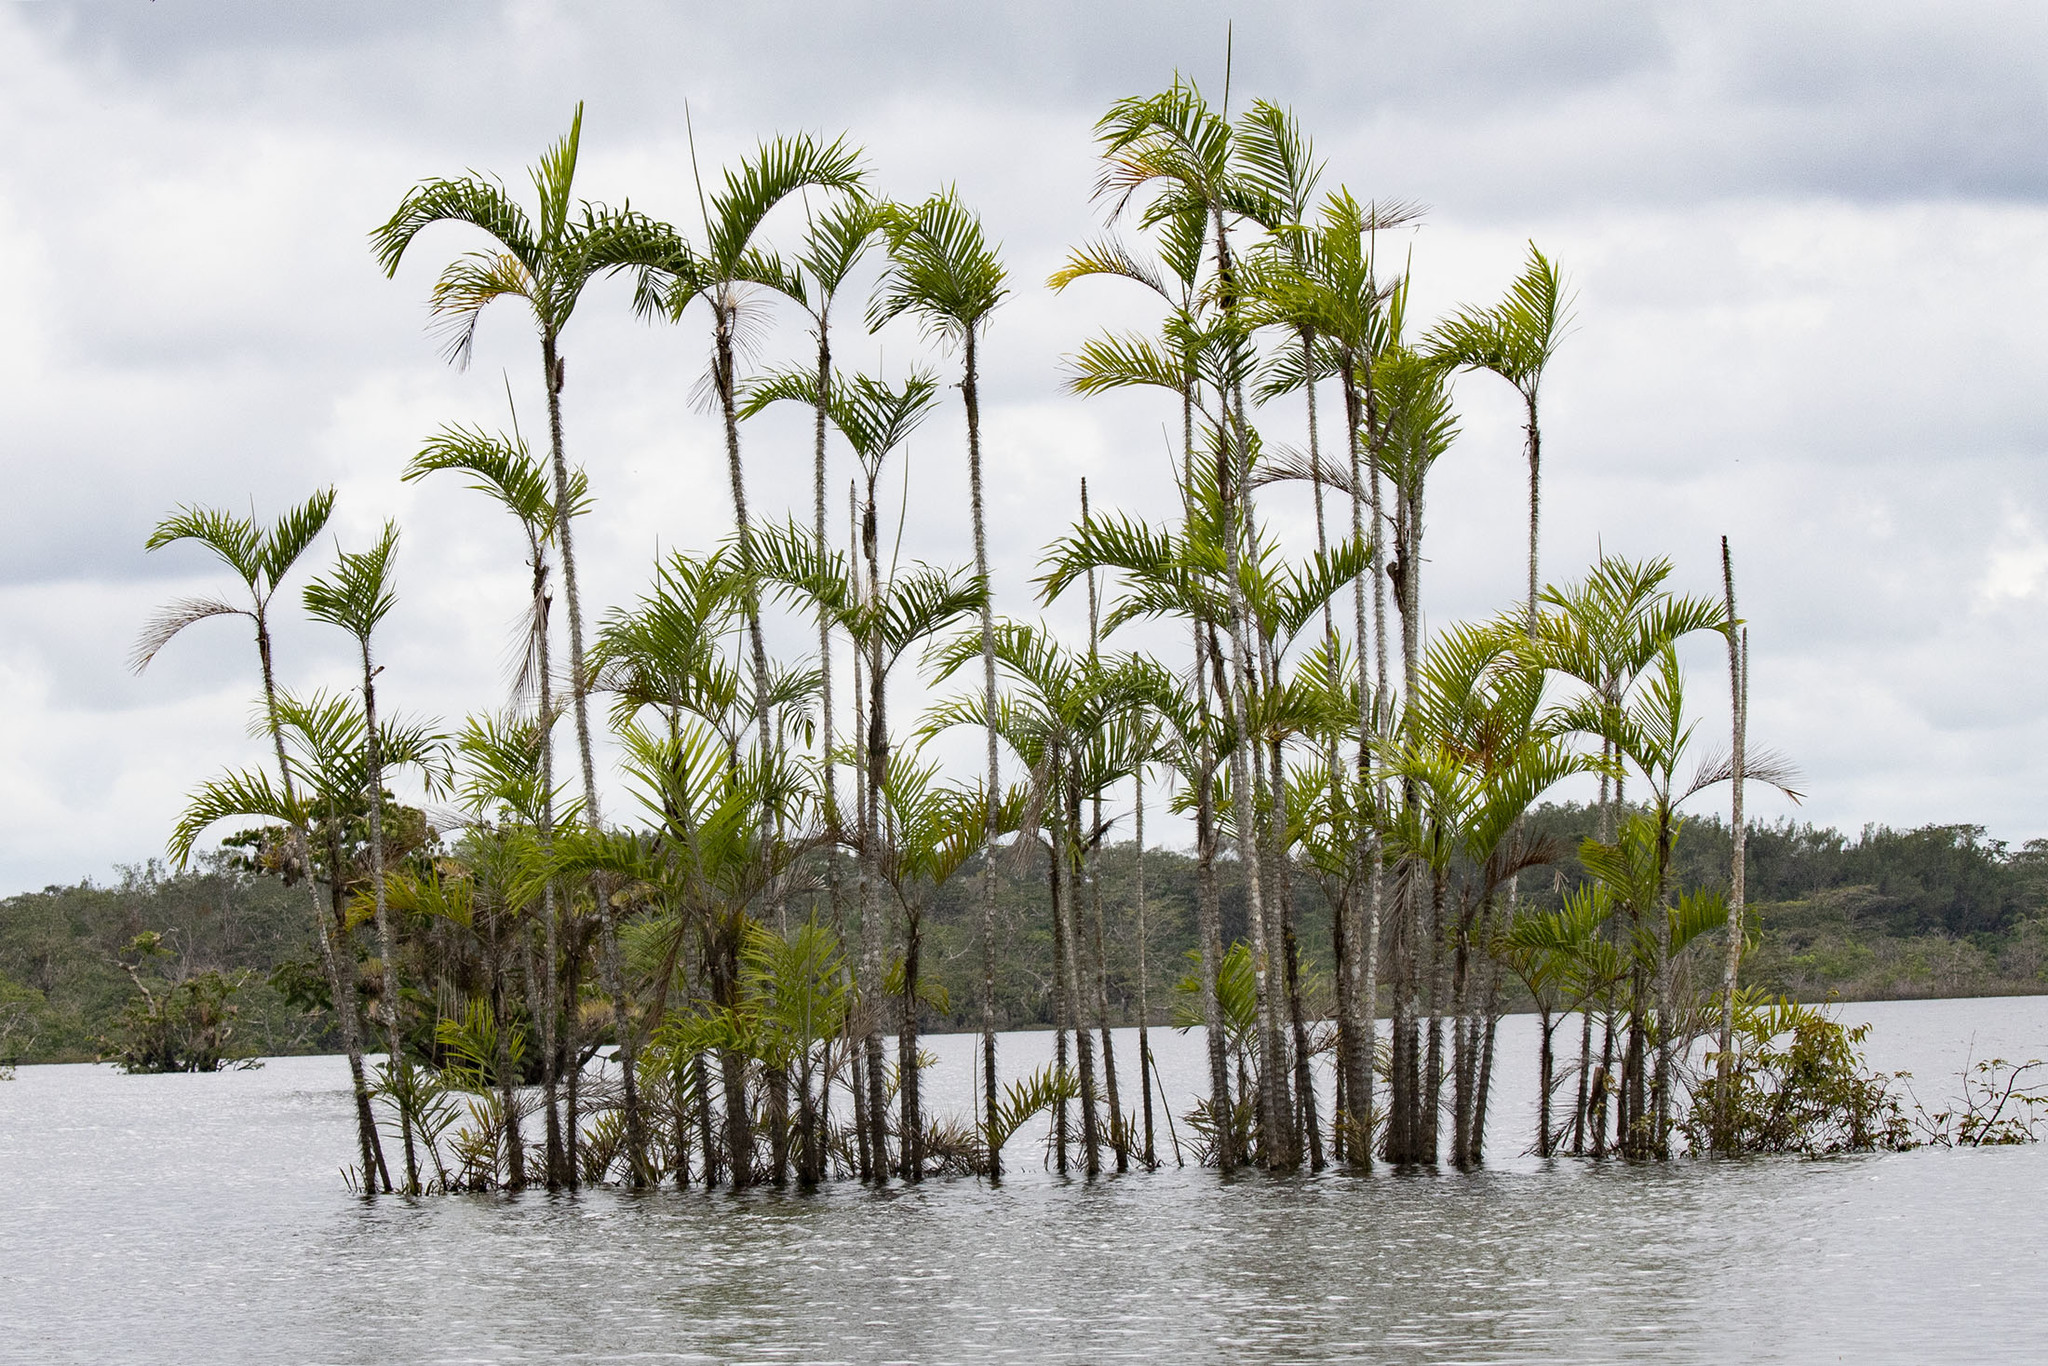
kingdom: Plantae
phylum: Tracheophyta
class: Liliopsida
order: Arecales
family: Arecaceae
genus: Bactris
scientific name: Bactris riparia
